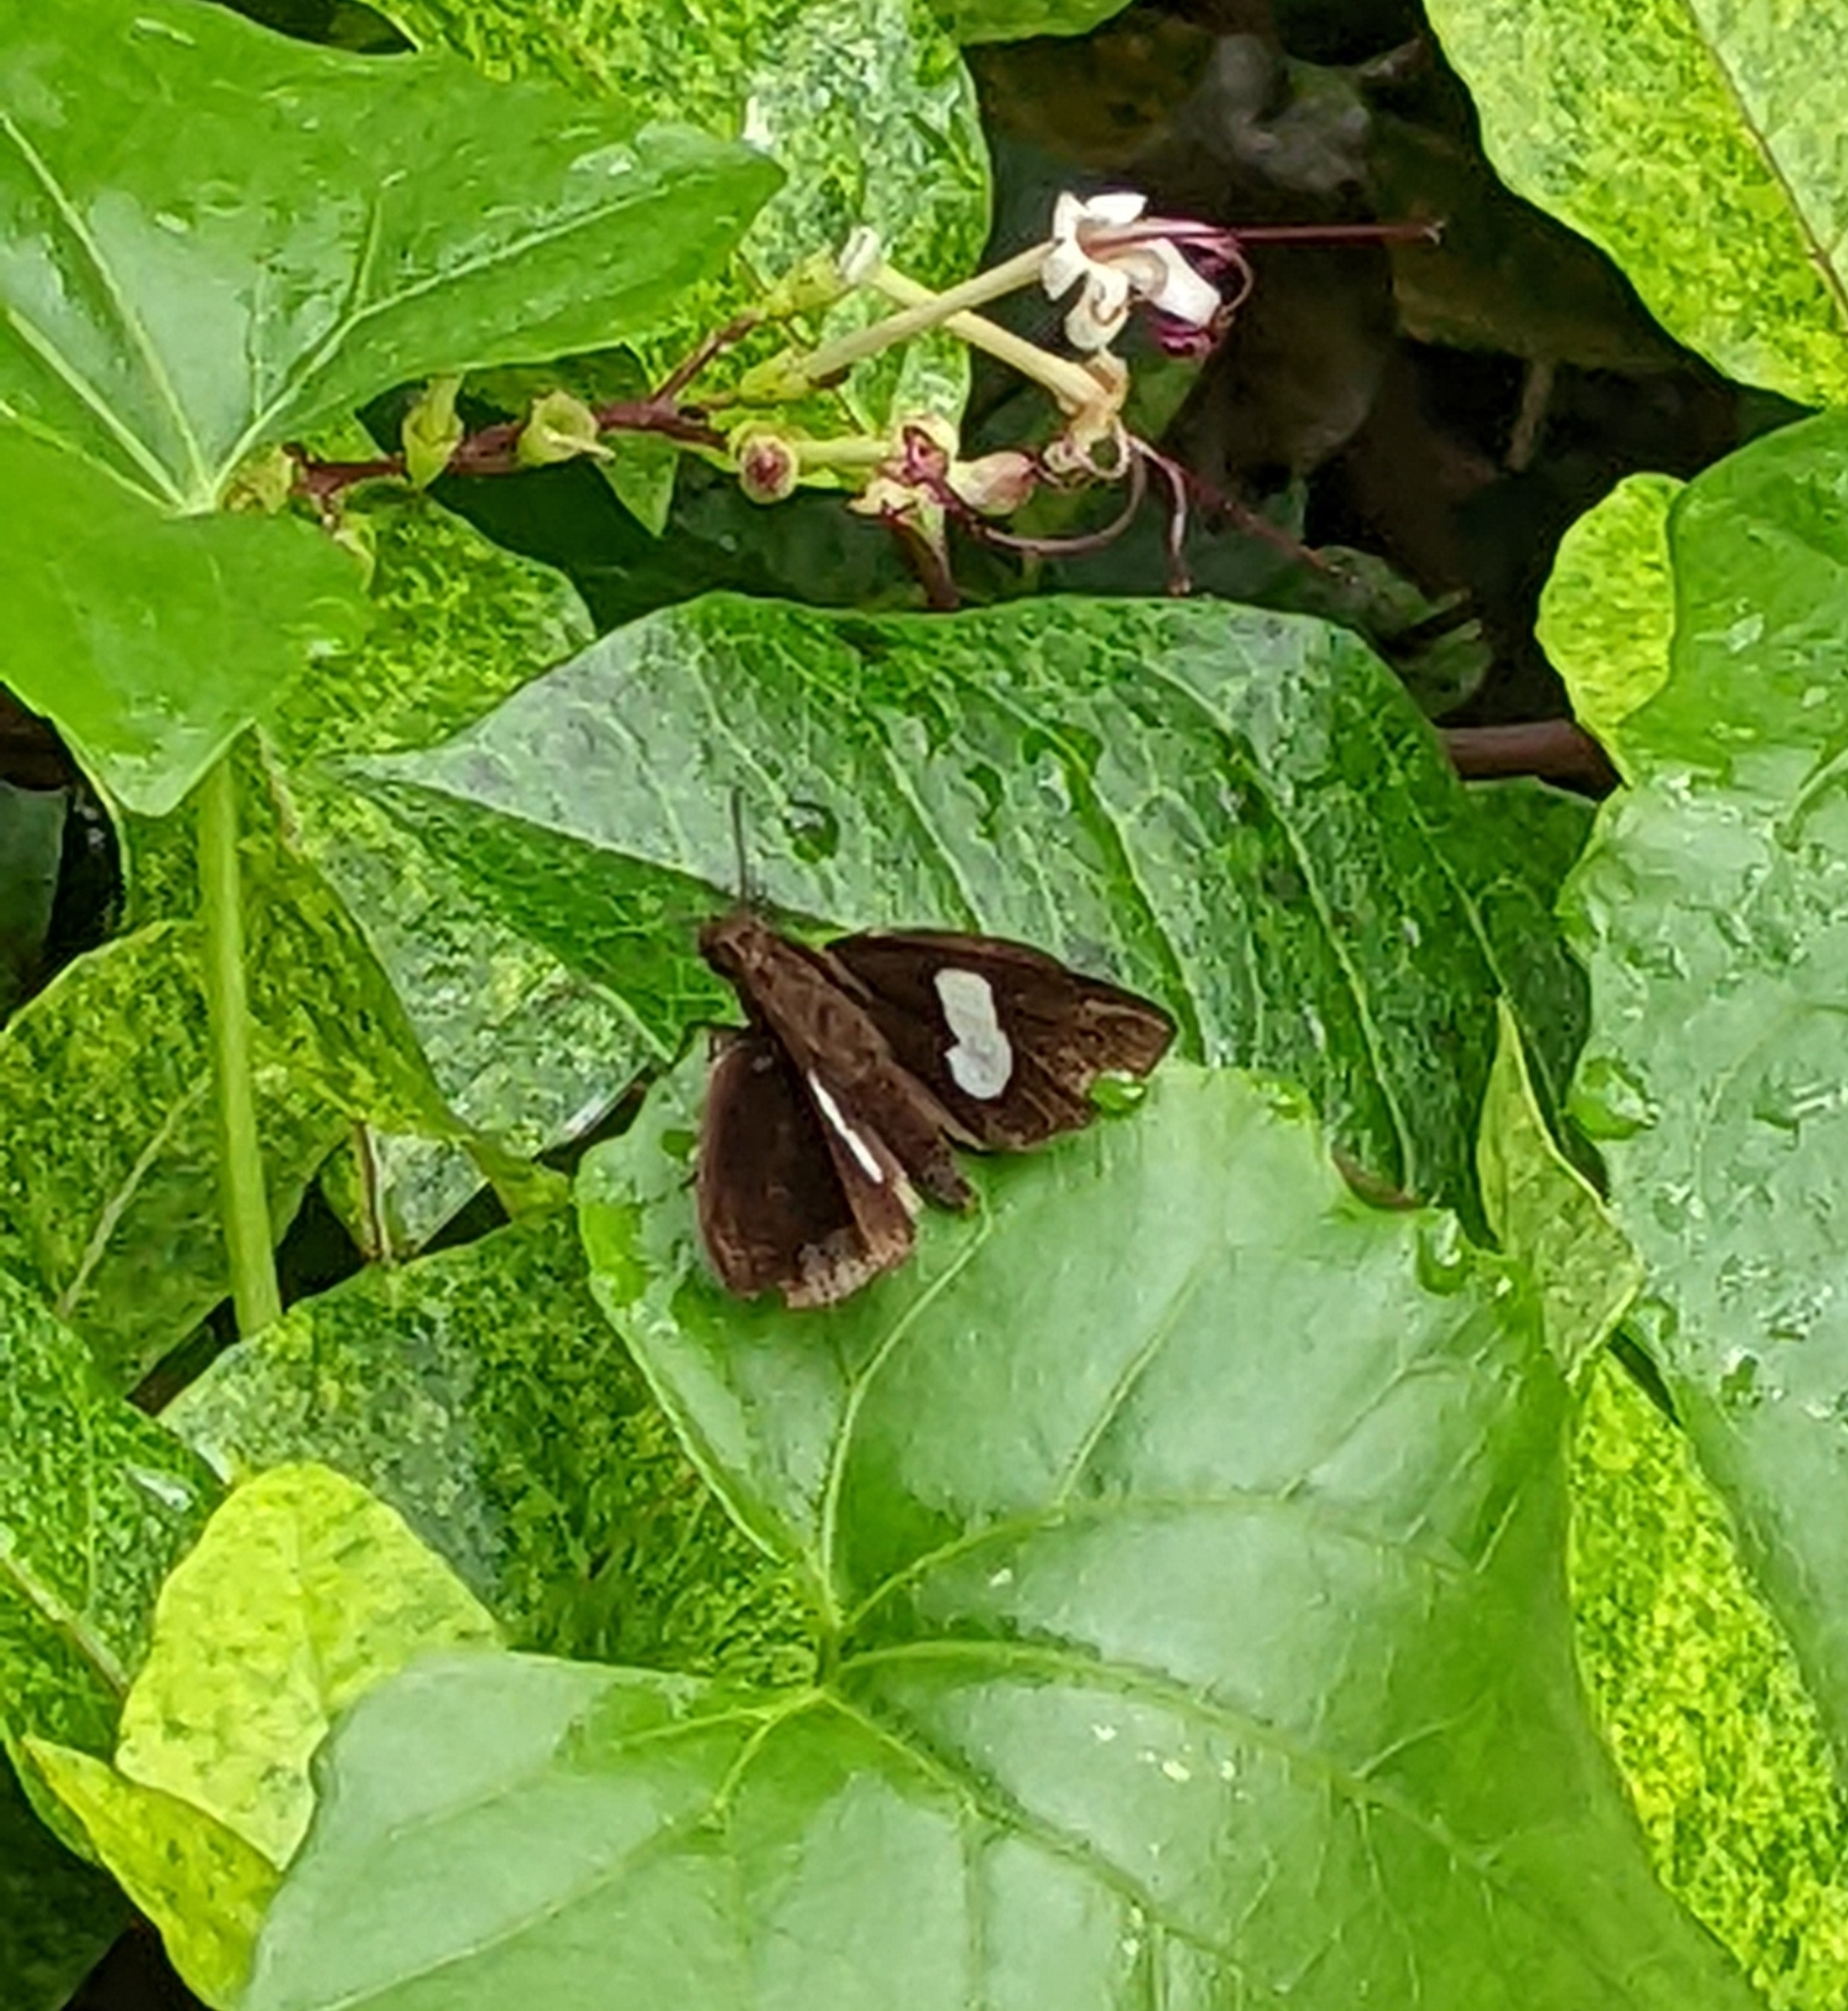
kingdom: Animalia
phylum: Arthropoda
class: Insecta
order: Lepidoptera
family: Hesperiidae
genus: Notocrypta
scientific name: Notocrypta paralysos
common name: Common banded demon
